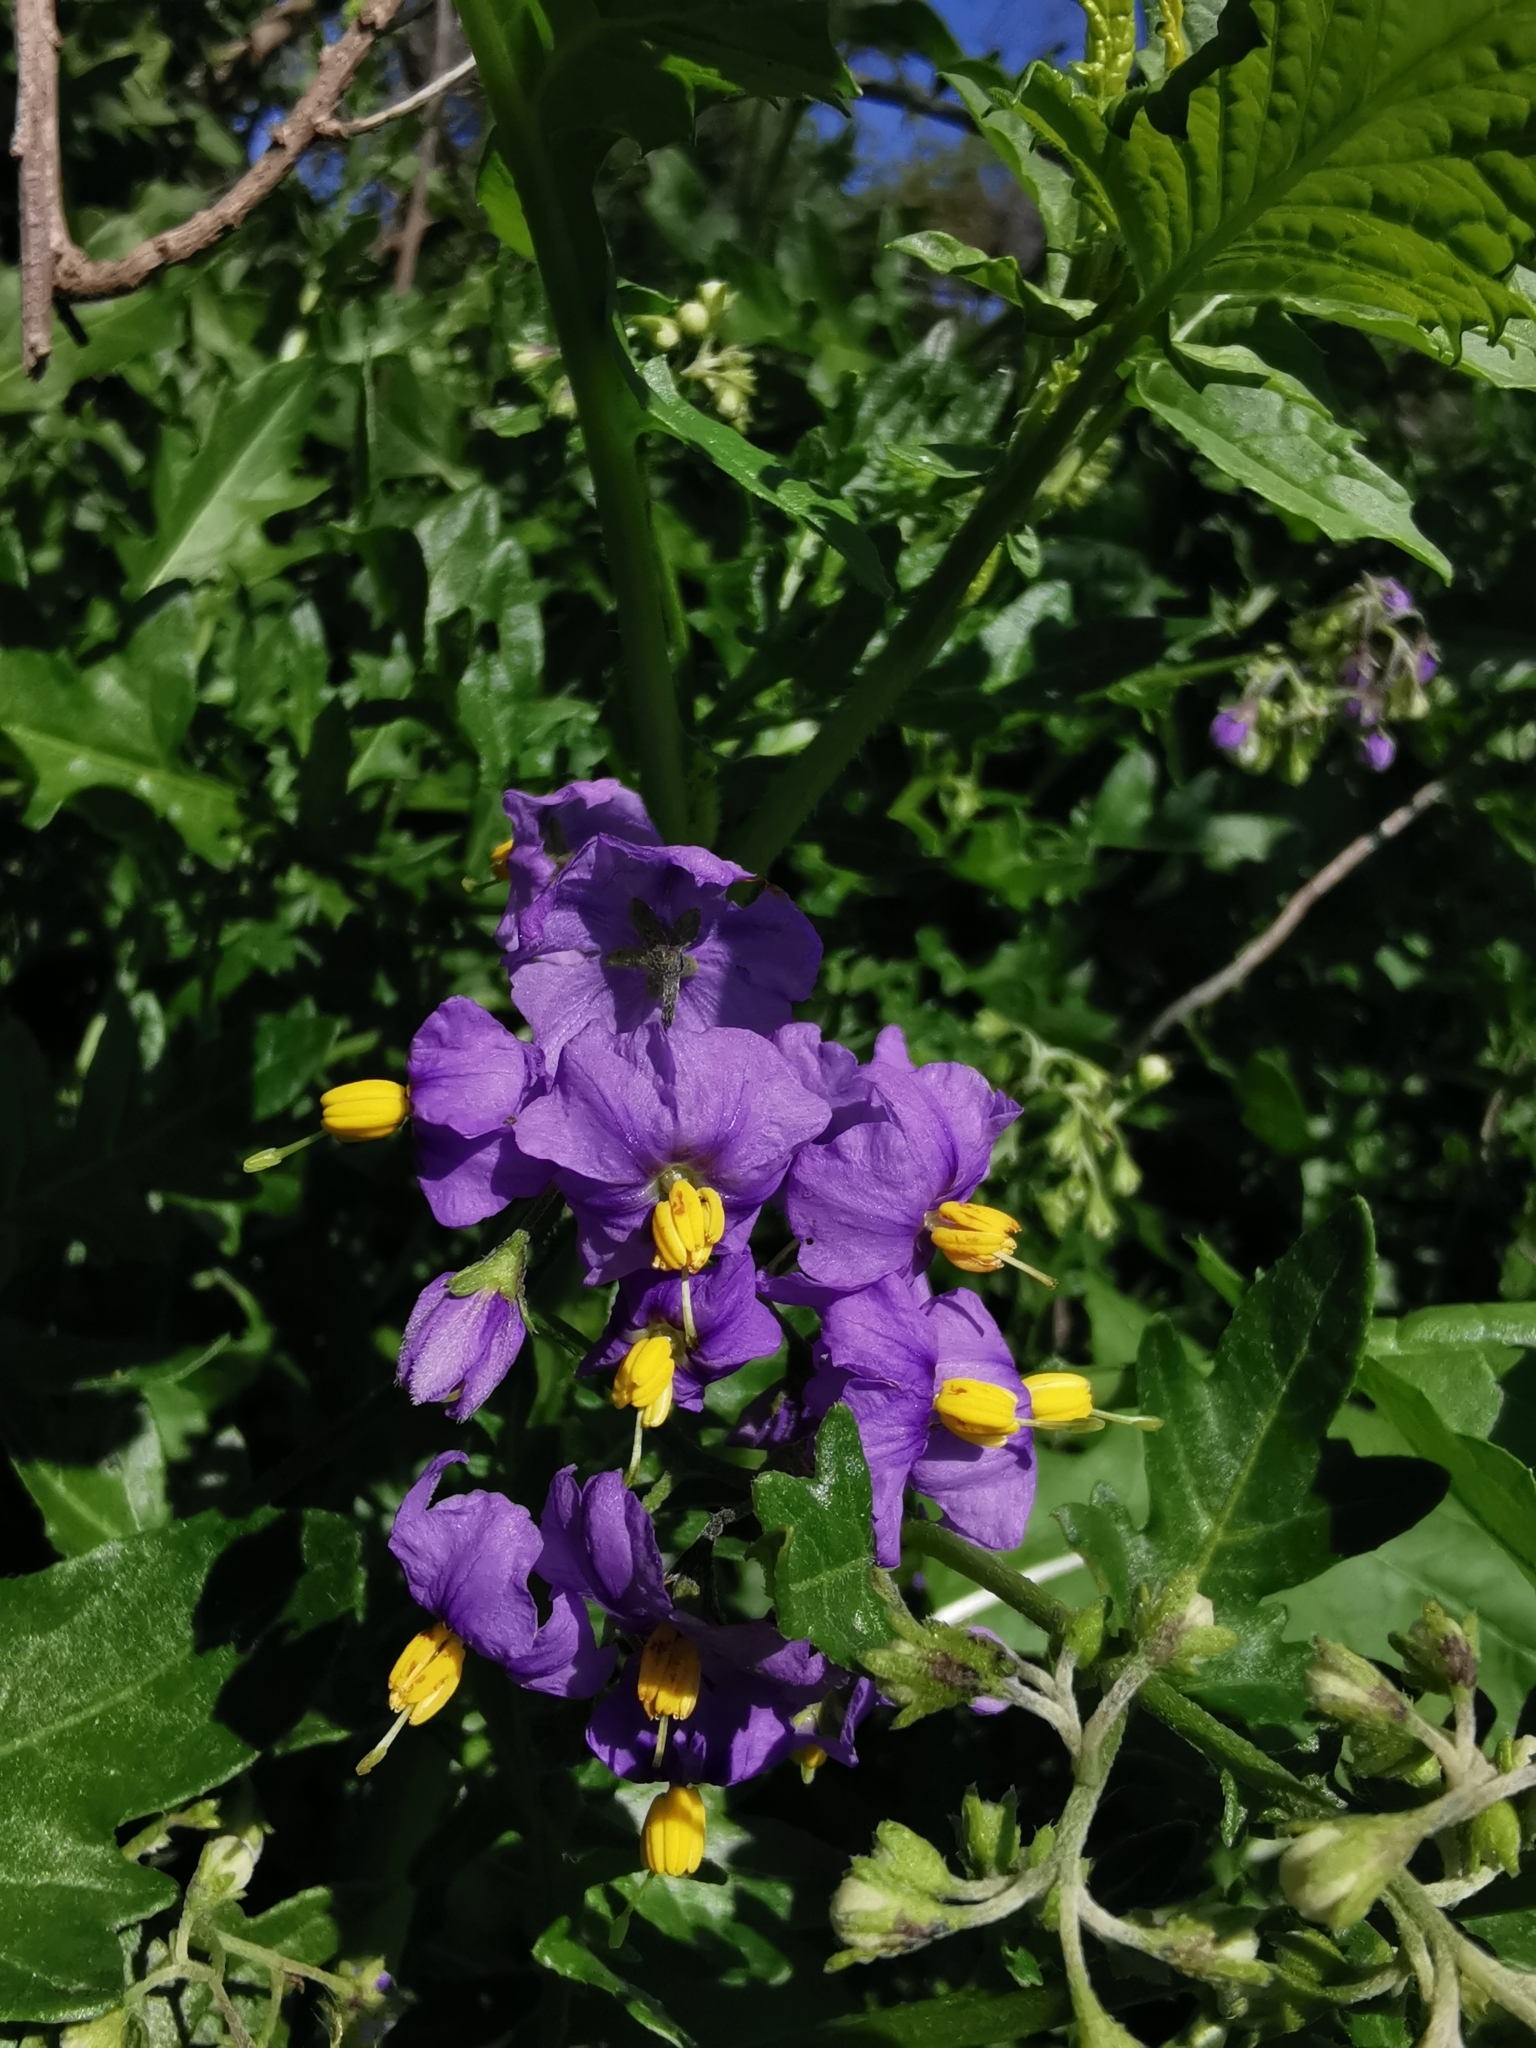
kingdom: Plantae
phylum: Tracheophyta
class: Magnoliopsida
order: Solanales
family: Solanaceae
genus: Solanum
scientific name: Solanum pinnatum
